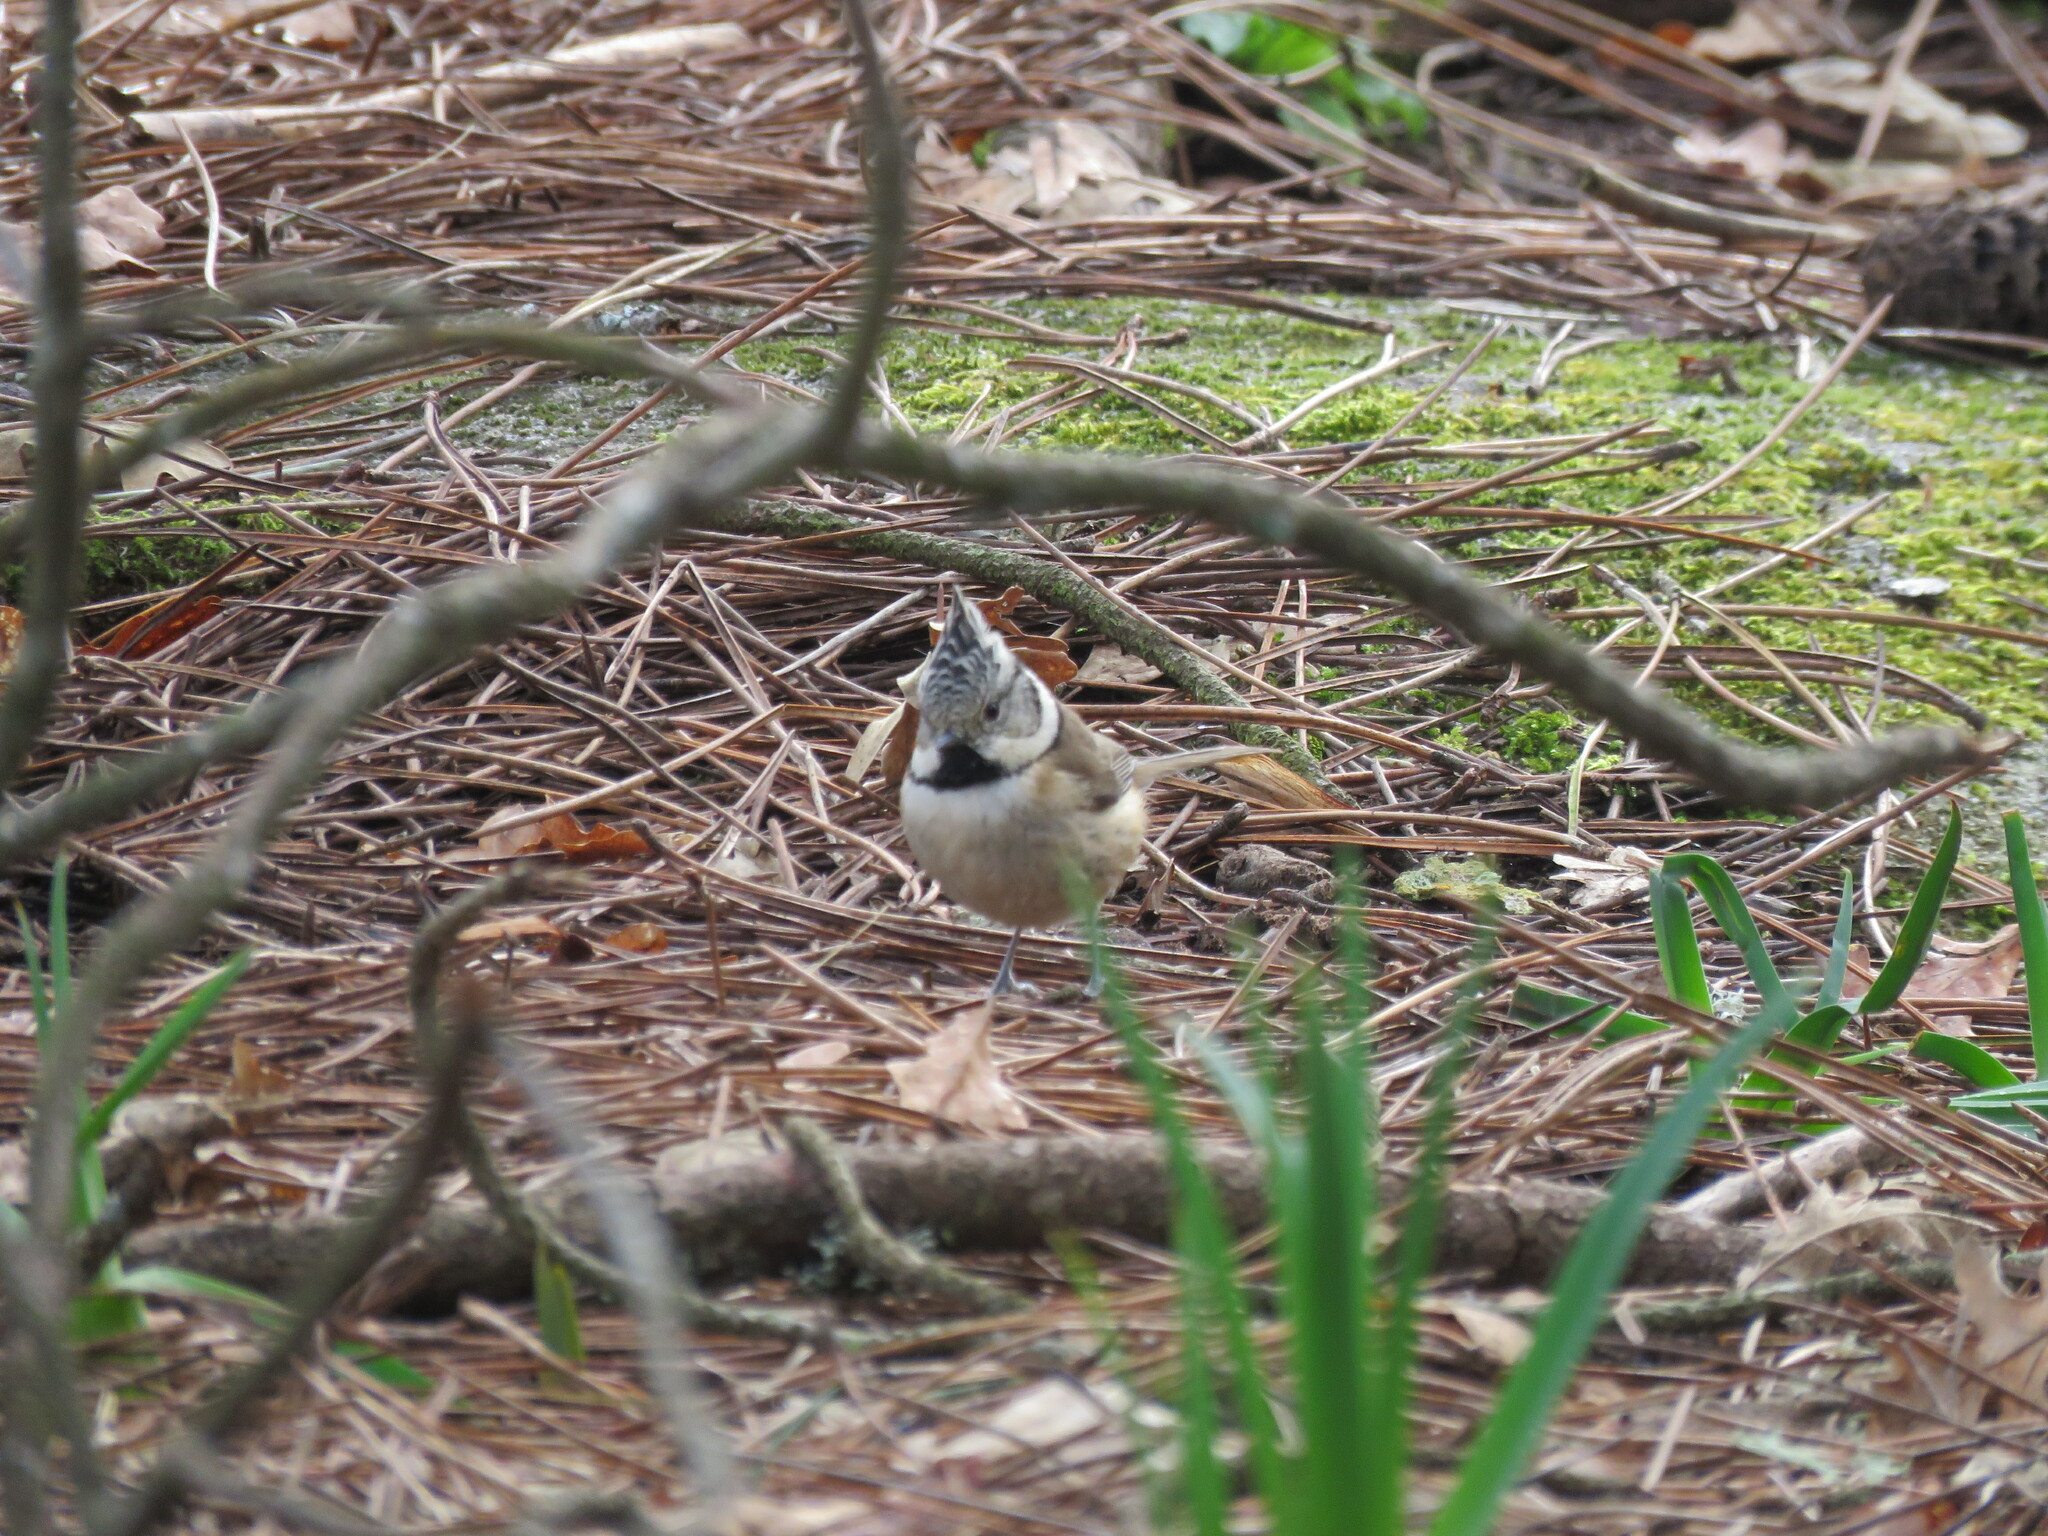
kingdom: Animalia
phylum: Chordata
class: Aves
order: Passeriformes
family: Paridae
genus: Lophophanes
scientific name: Lophophanes cristatus
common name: European crested tit
